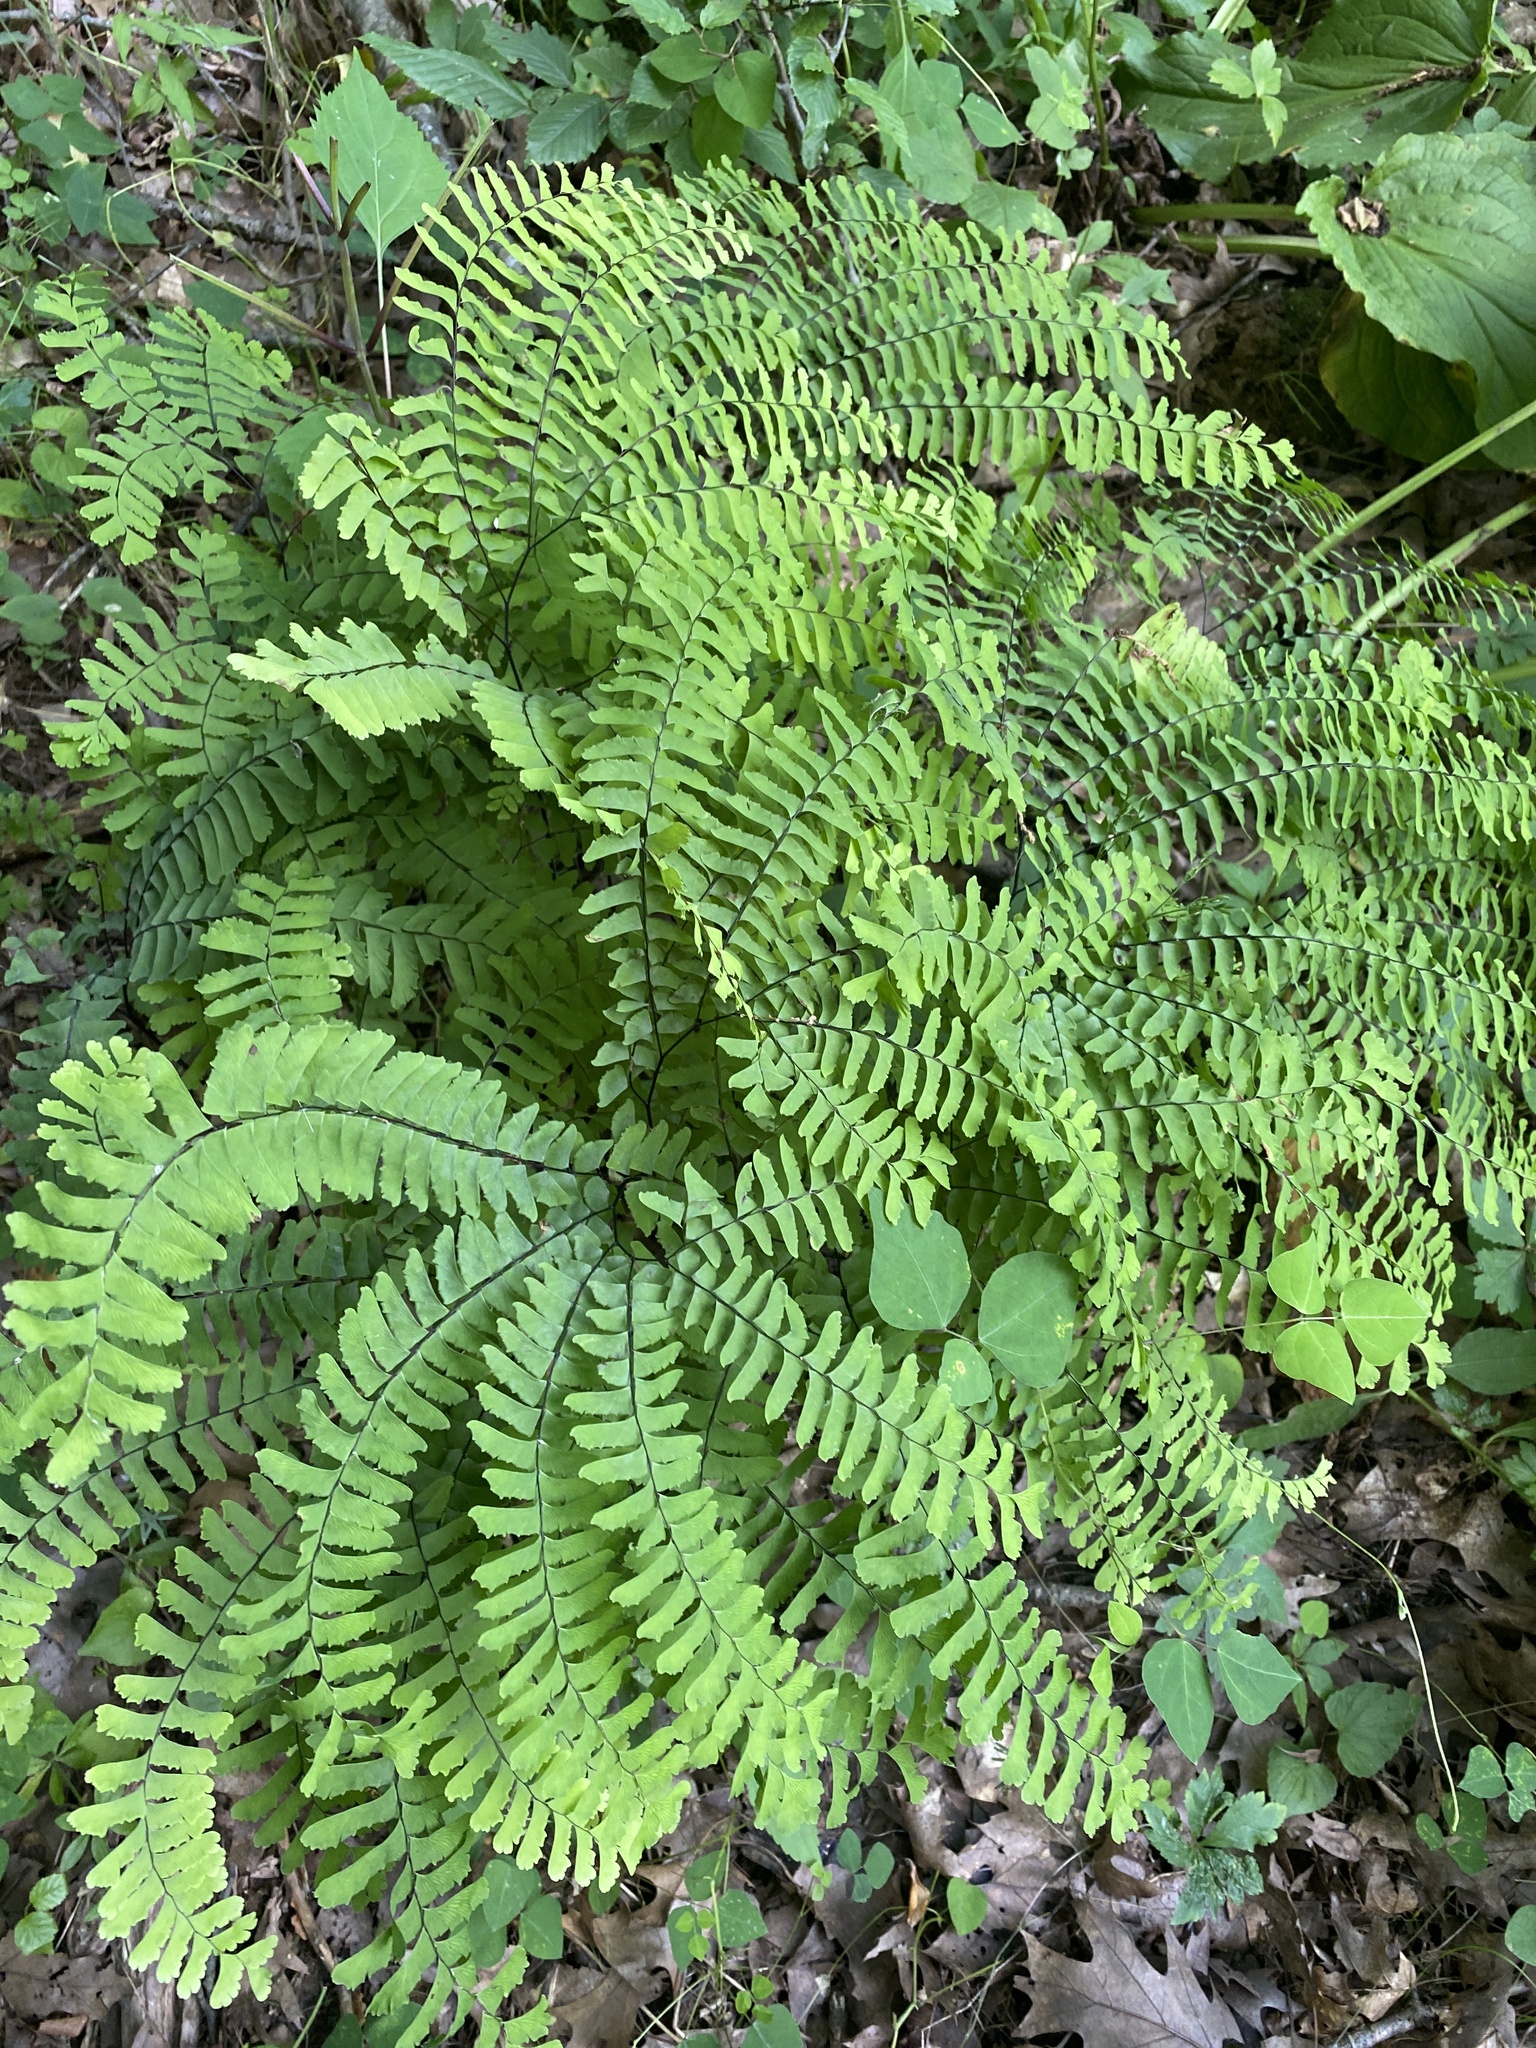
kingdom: Plantae
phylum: Tracheophyta
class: Polypodiopsida
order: Polypodiales
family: Pteridaceae
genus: Adiantum
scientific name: Adiantum pedatum
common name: Five-finger fern
